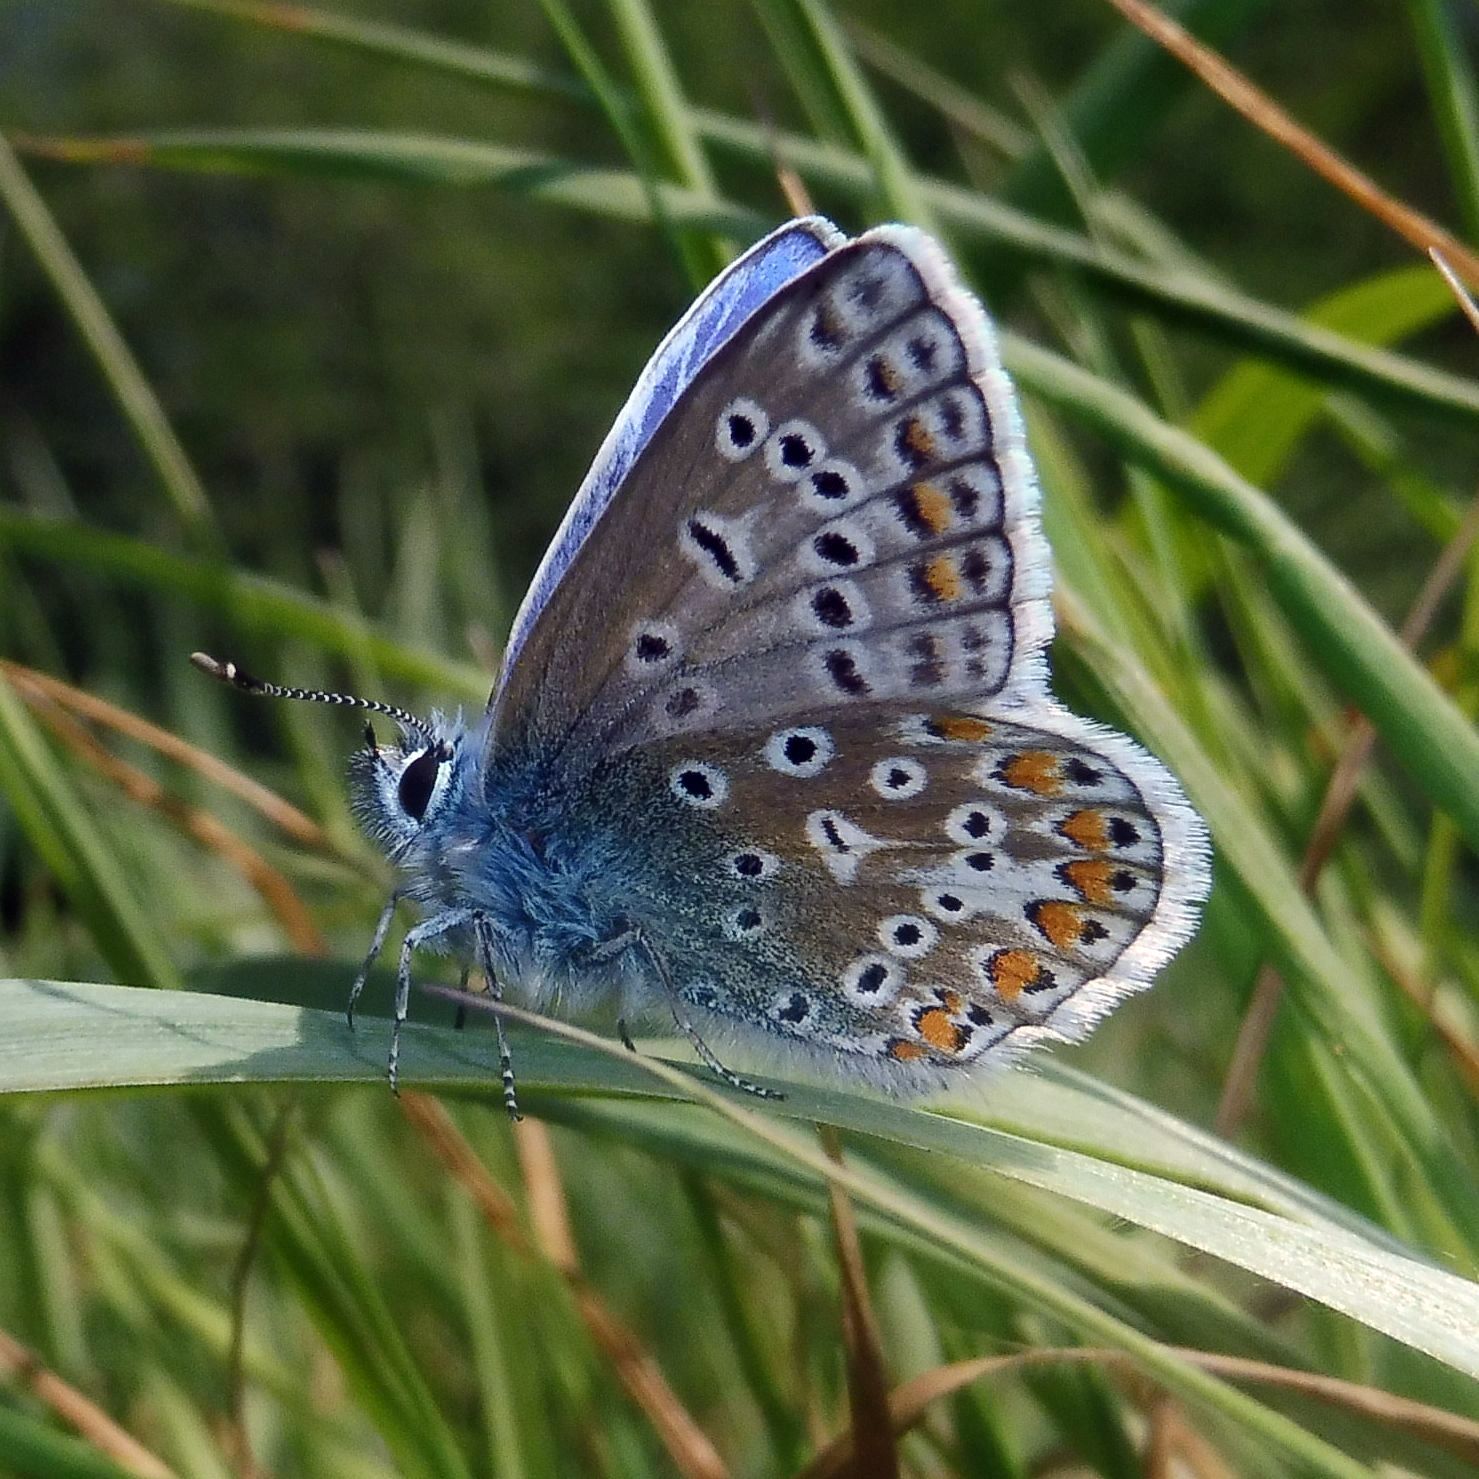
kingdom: Animalia
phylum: Arthropoda
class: Insecta
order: Lepidoptera
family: Lycaenidae
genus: Polyommatus
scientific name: Polyommatus icarus
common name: Common blue
